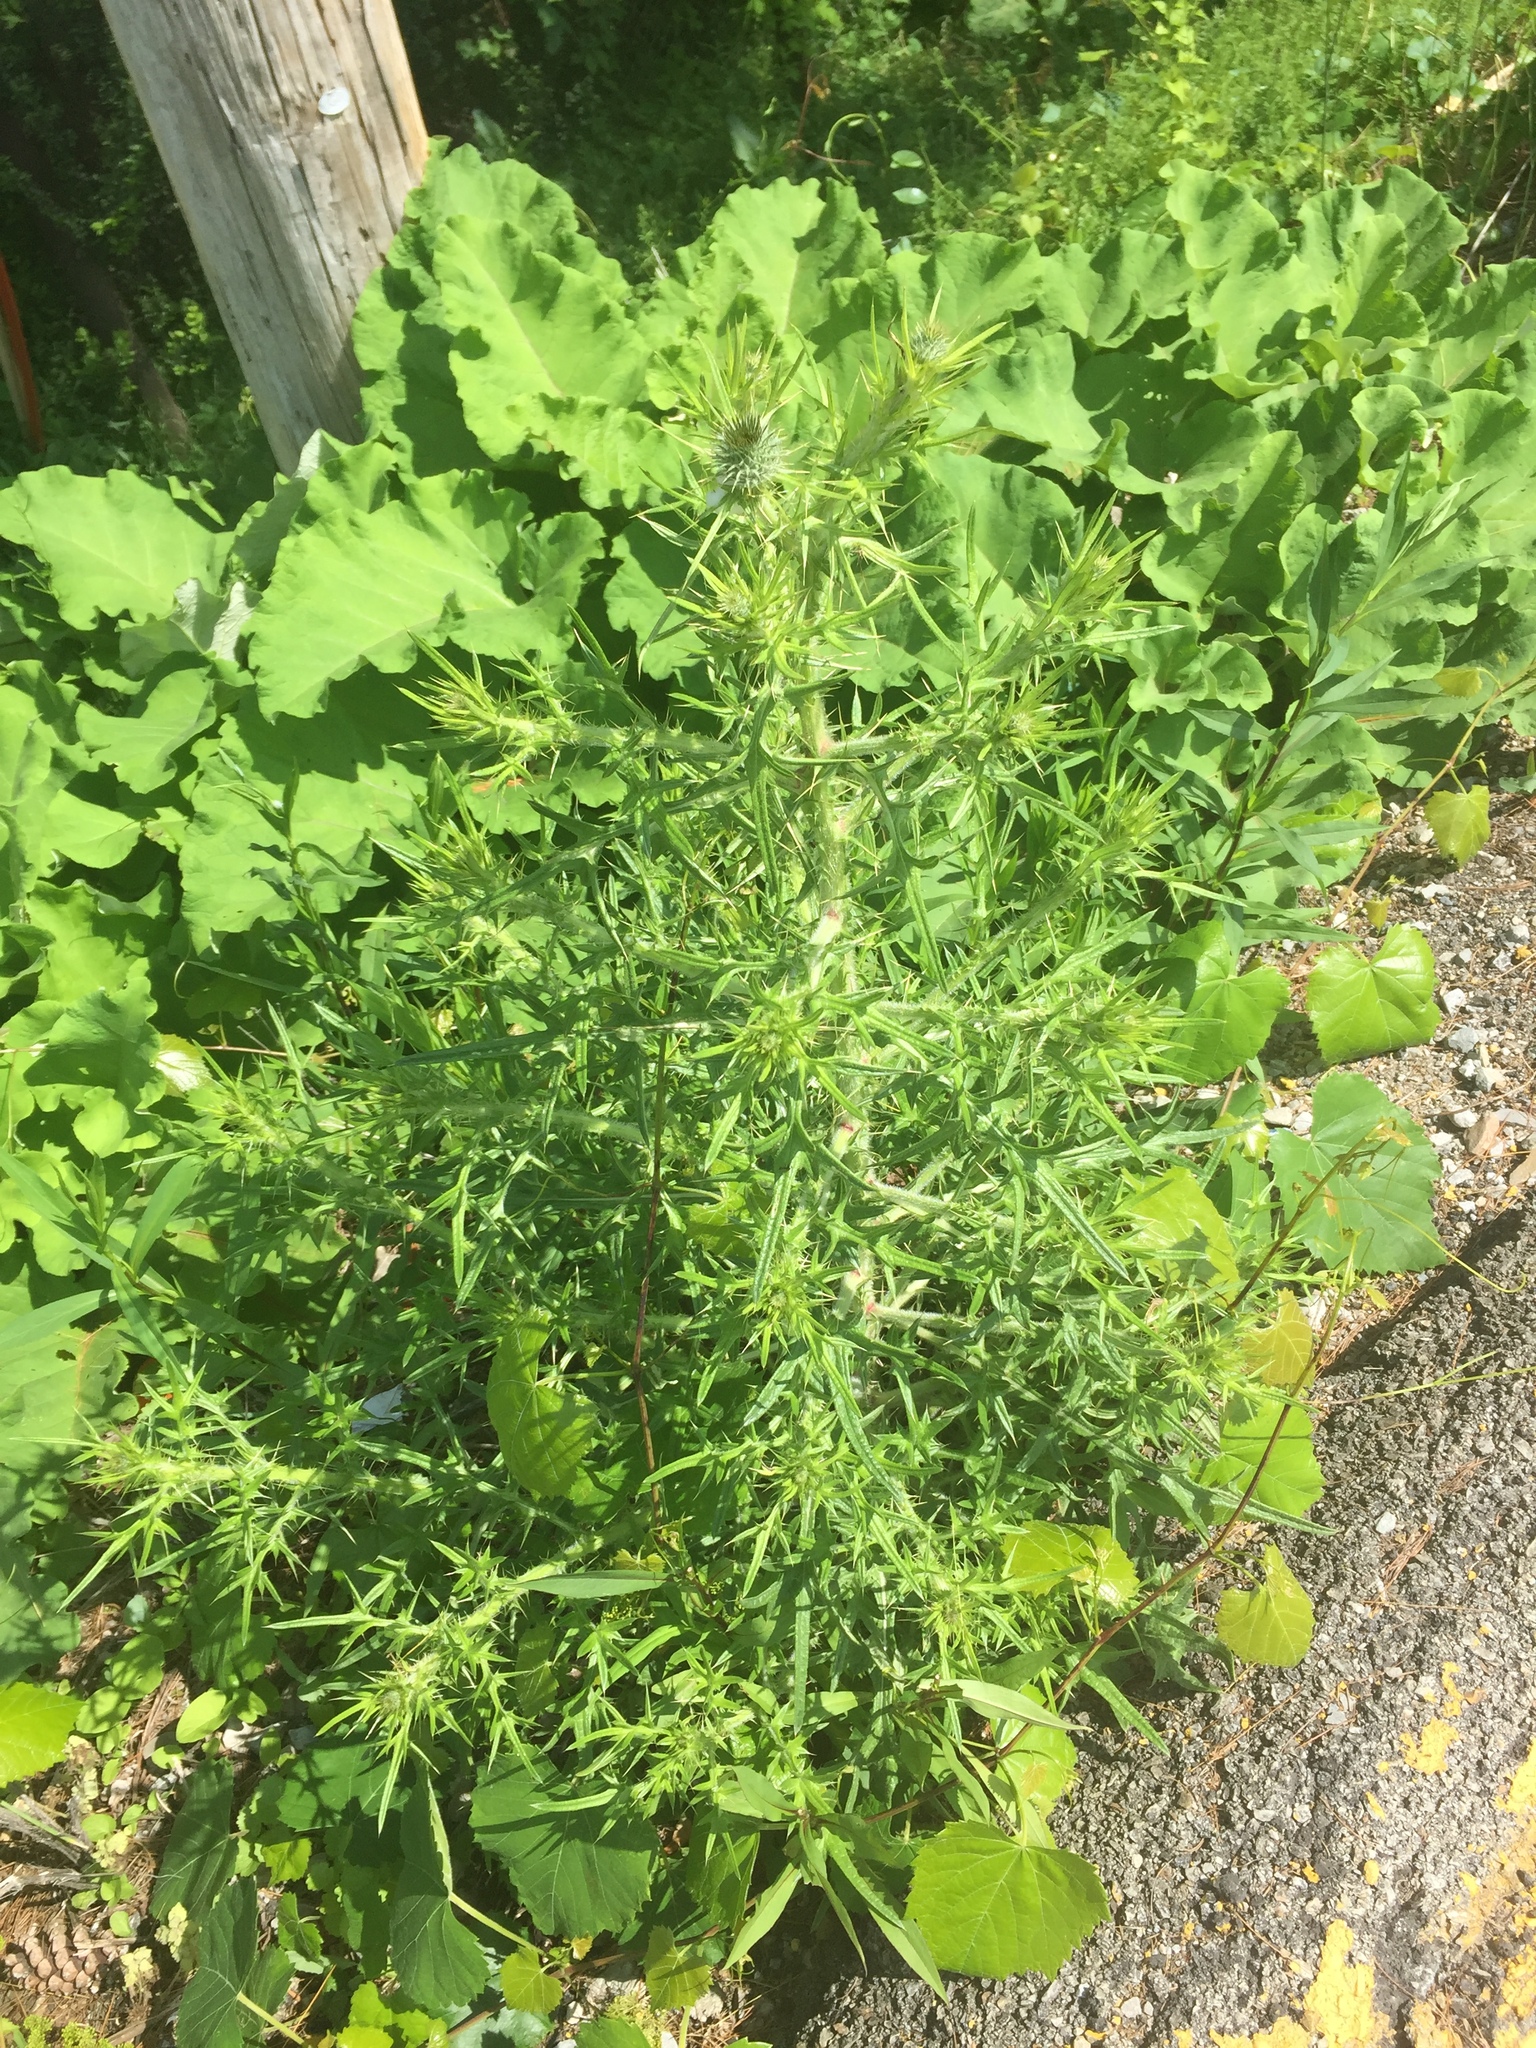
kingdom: Plantae
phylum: Tracheophyta
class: Magnoliopsida
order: Asterales
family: Asteraceae
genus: Cirsium
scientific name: Cirsium vulgare
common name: Bull thistle
